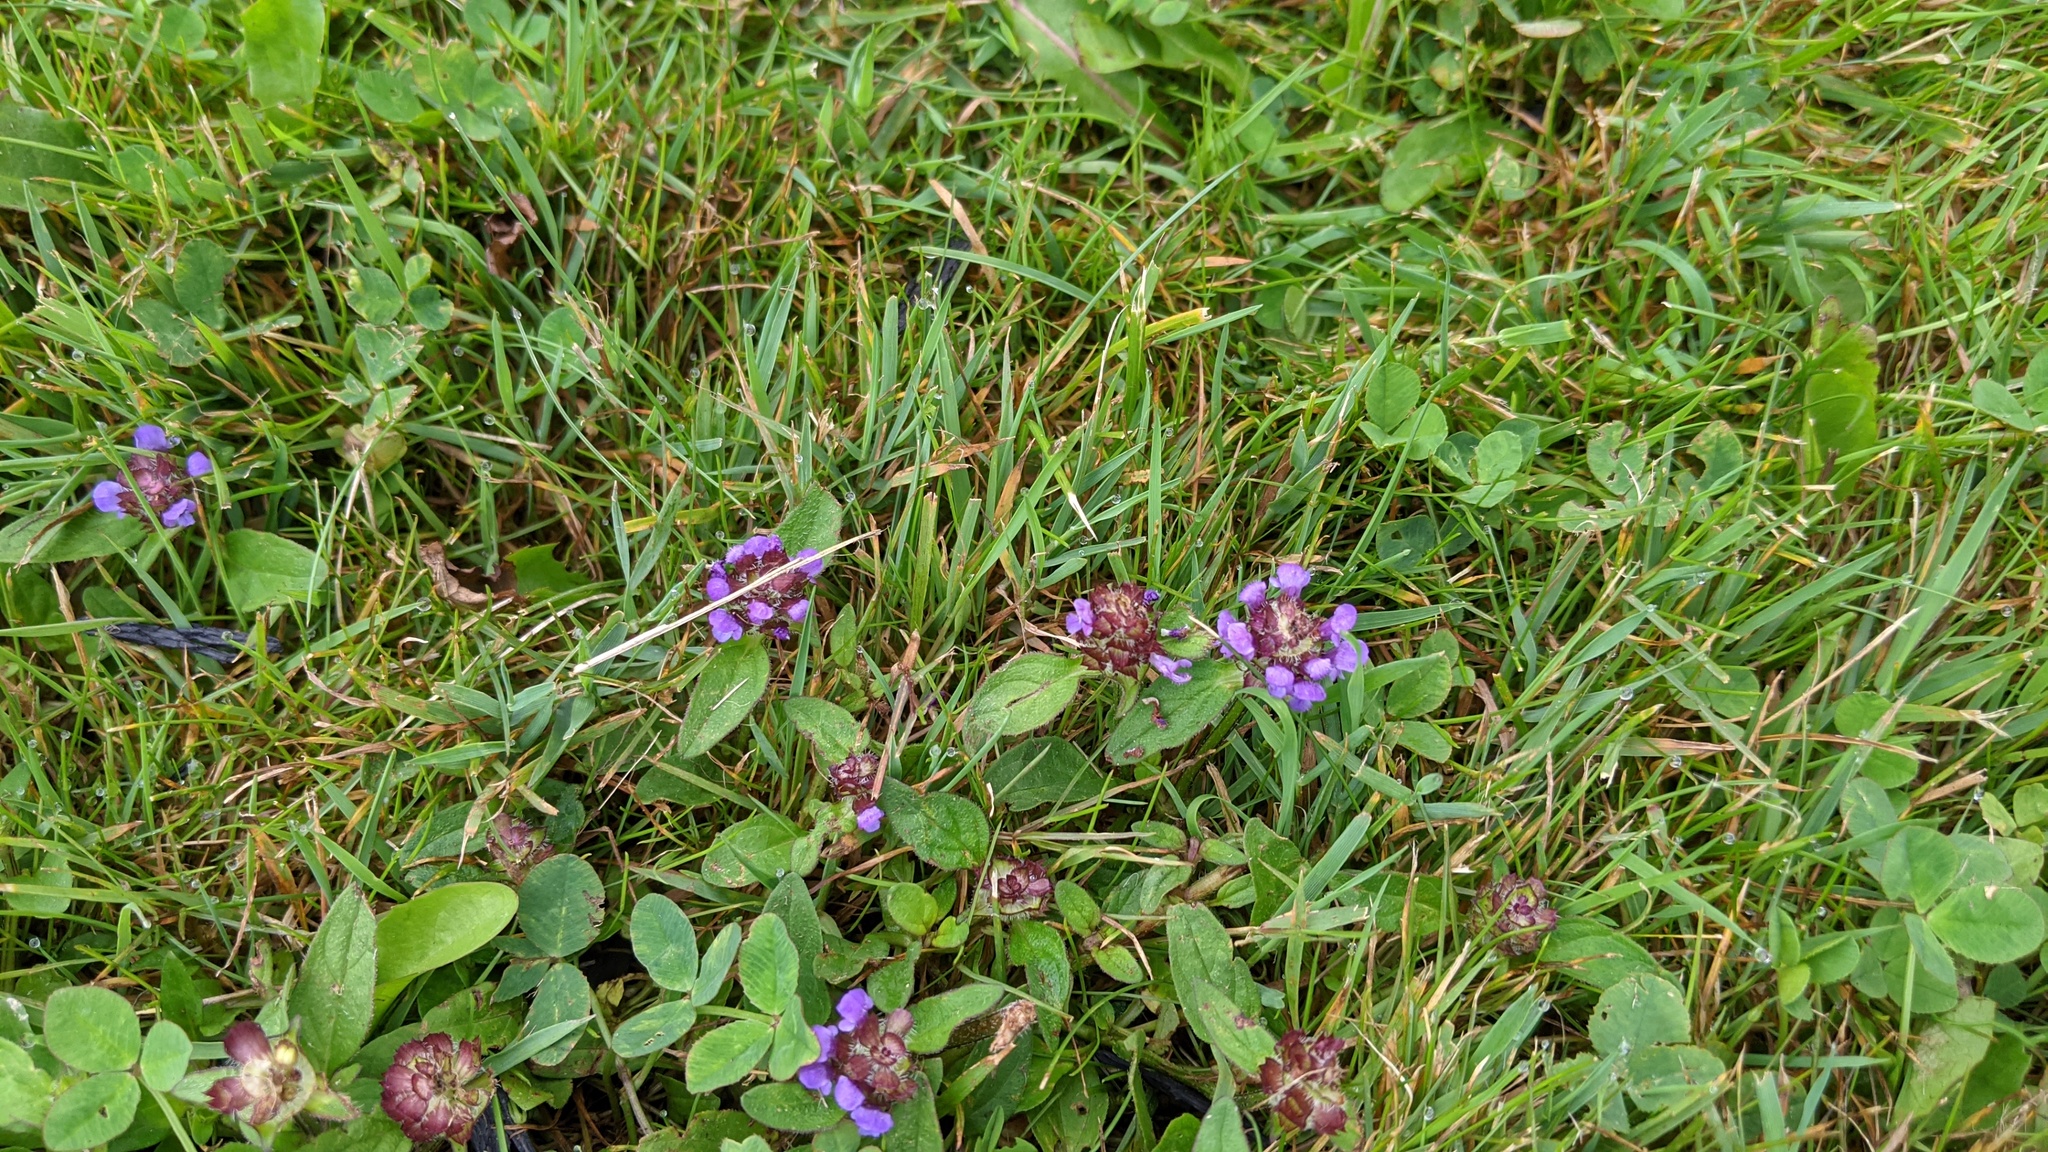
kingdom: Plantae
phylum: Tracheophyta
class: Magnoliopsida
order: Lamiales
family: Lamiaceae
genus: Prunella
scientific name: Prunella vulgaris
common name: Heal-all
